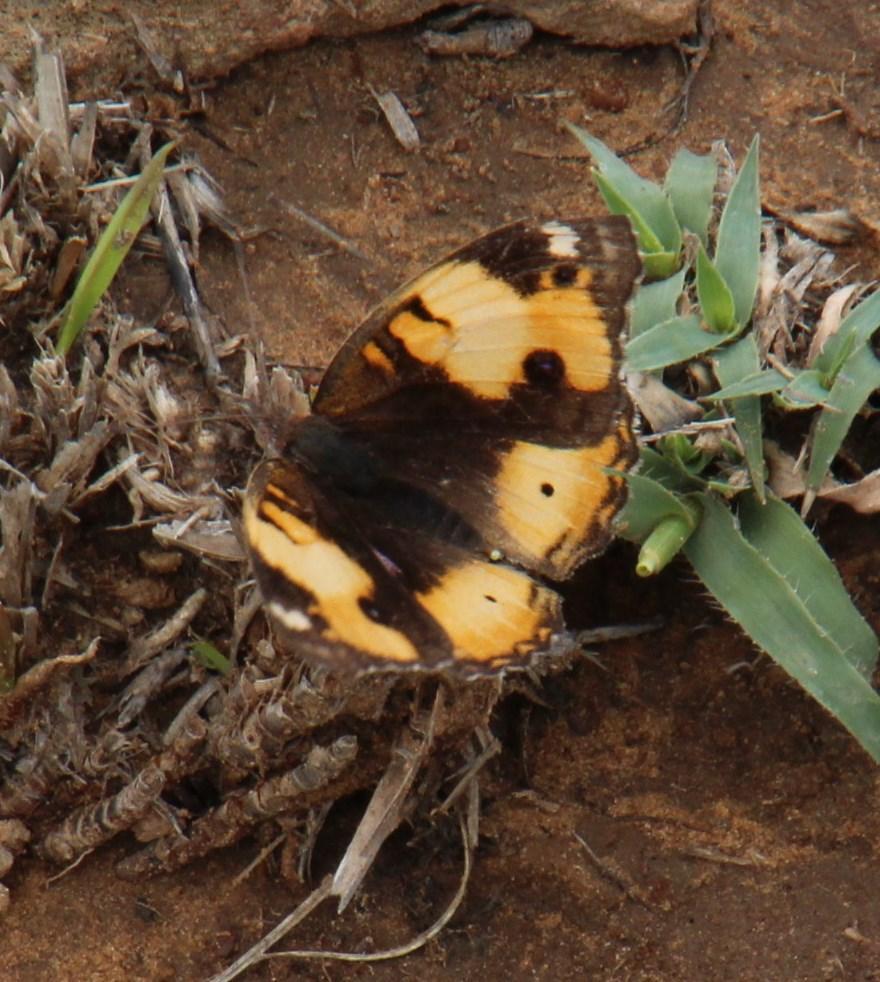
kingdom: Animalia
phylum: Arthropoda
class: Insecta
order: Lepidoptera
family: Nymphalidae
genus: Junonia
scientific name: Junonia hierta
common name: Yellow pansy
